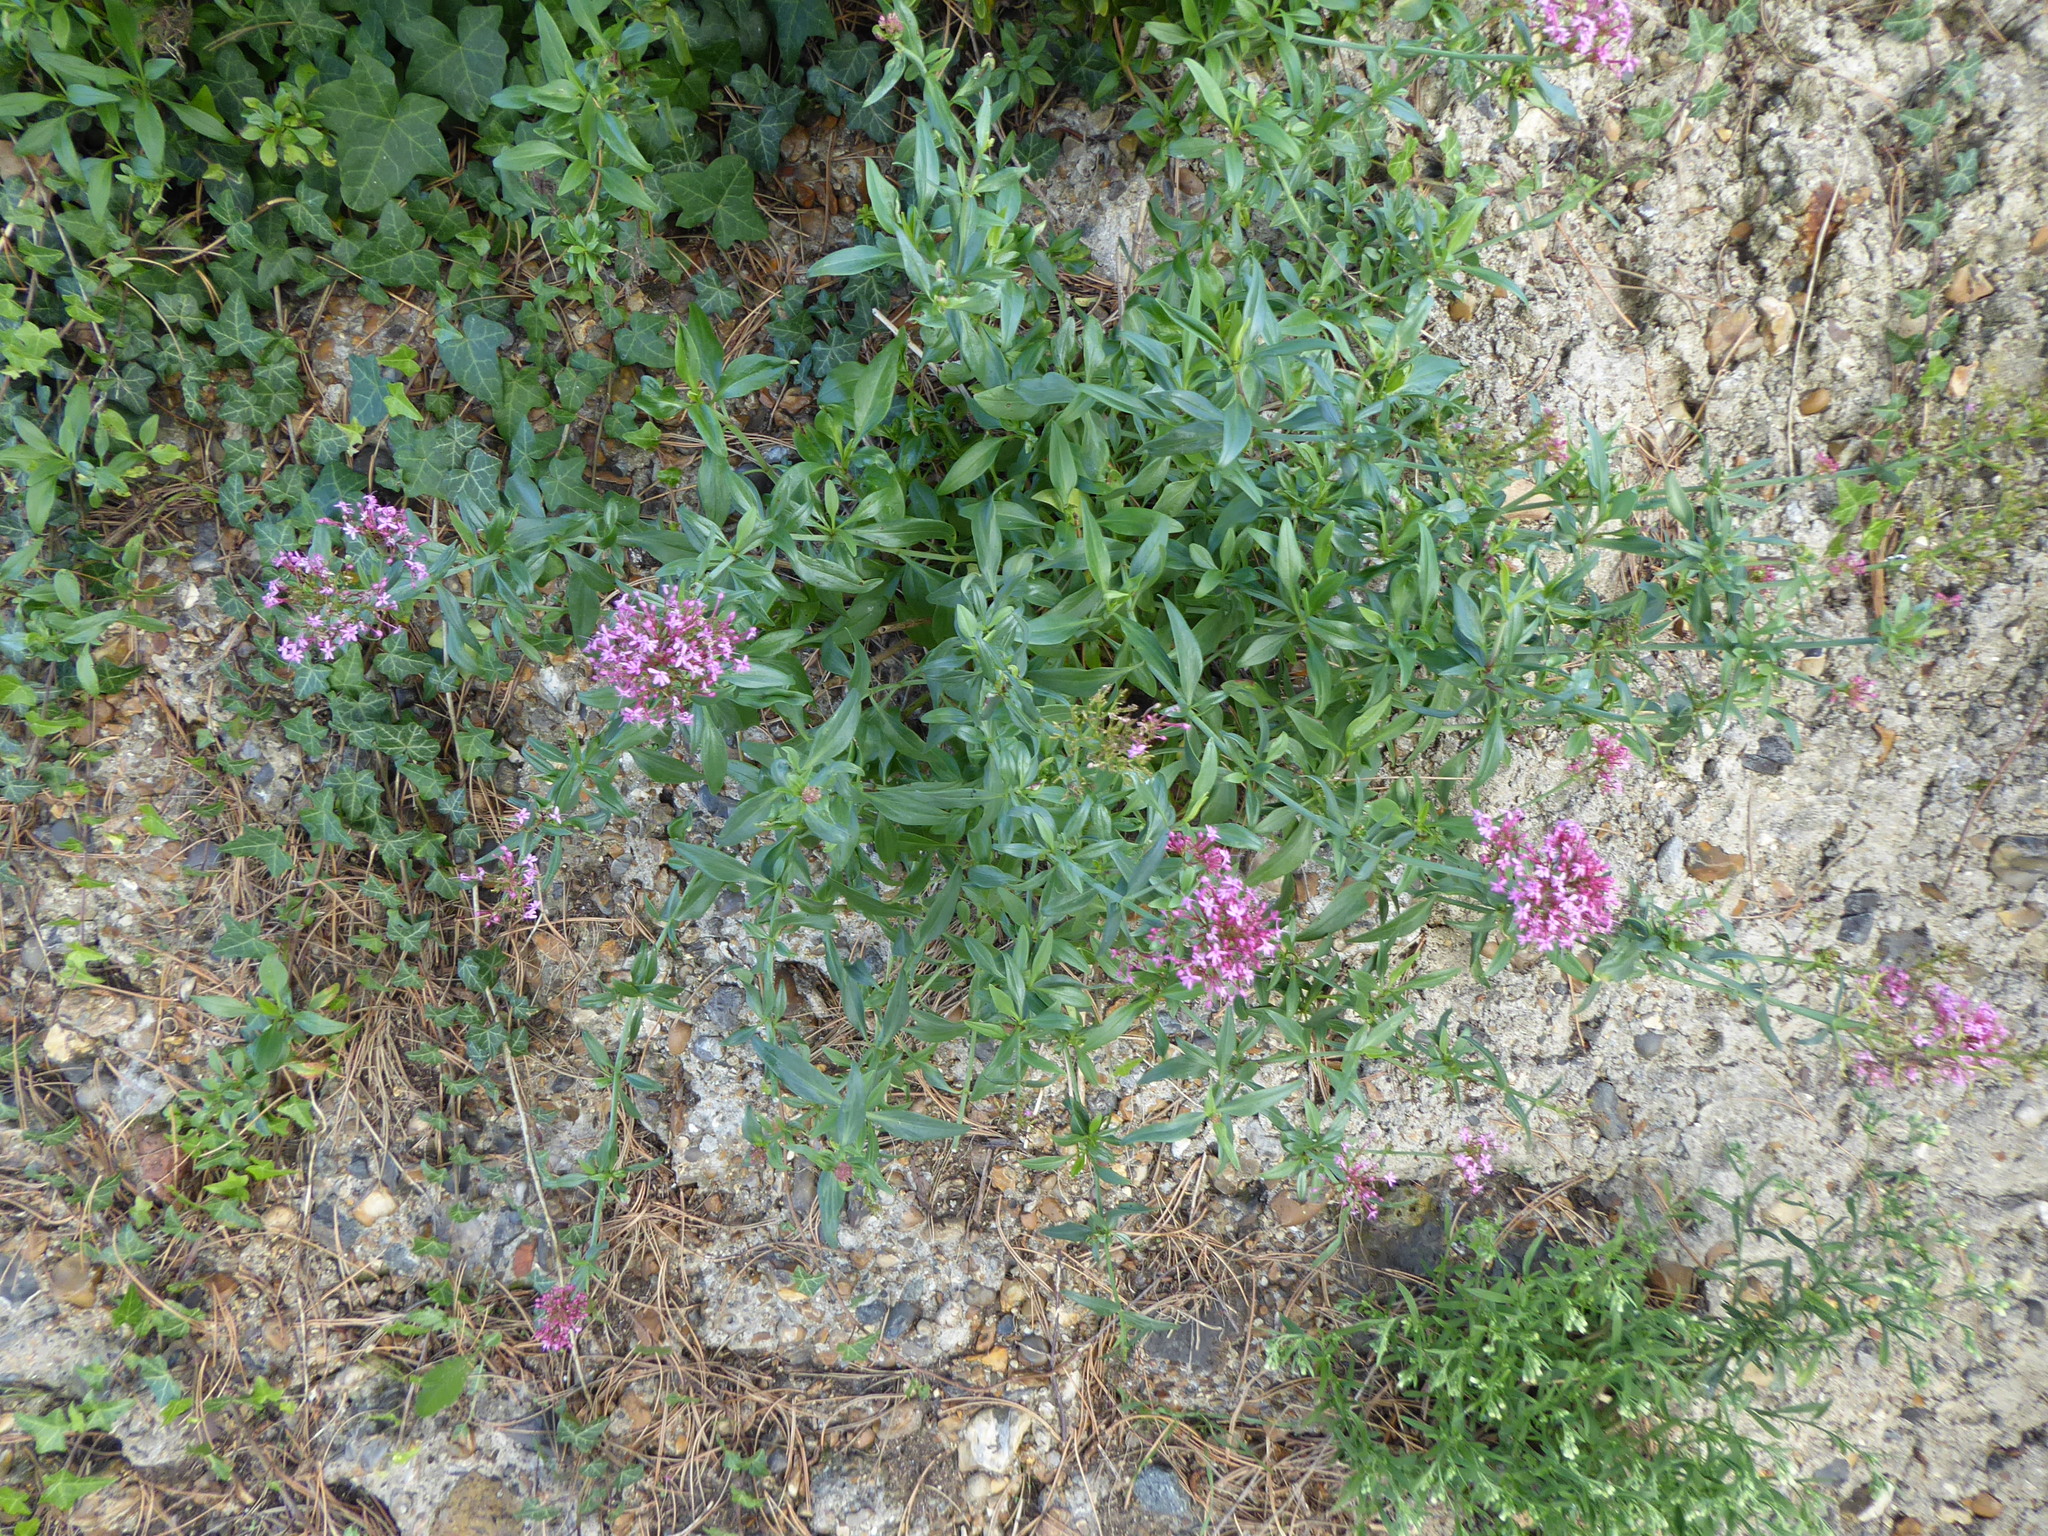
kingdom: Plantae
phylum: Tracheophyta
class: Magnoliopsida
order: Dipsacales
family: Caprifoliaceae
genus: Centranthus
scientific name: Centranthus ruber
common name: Red valerian
